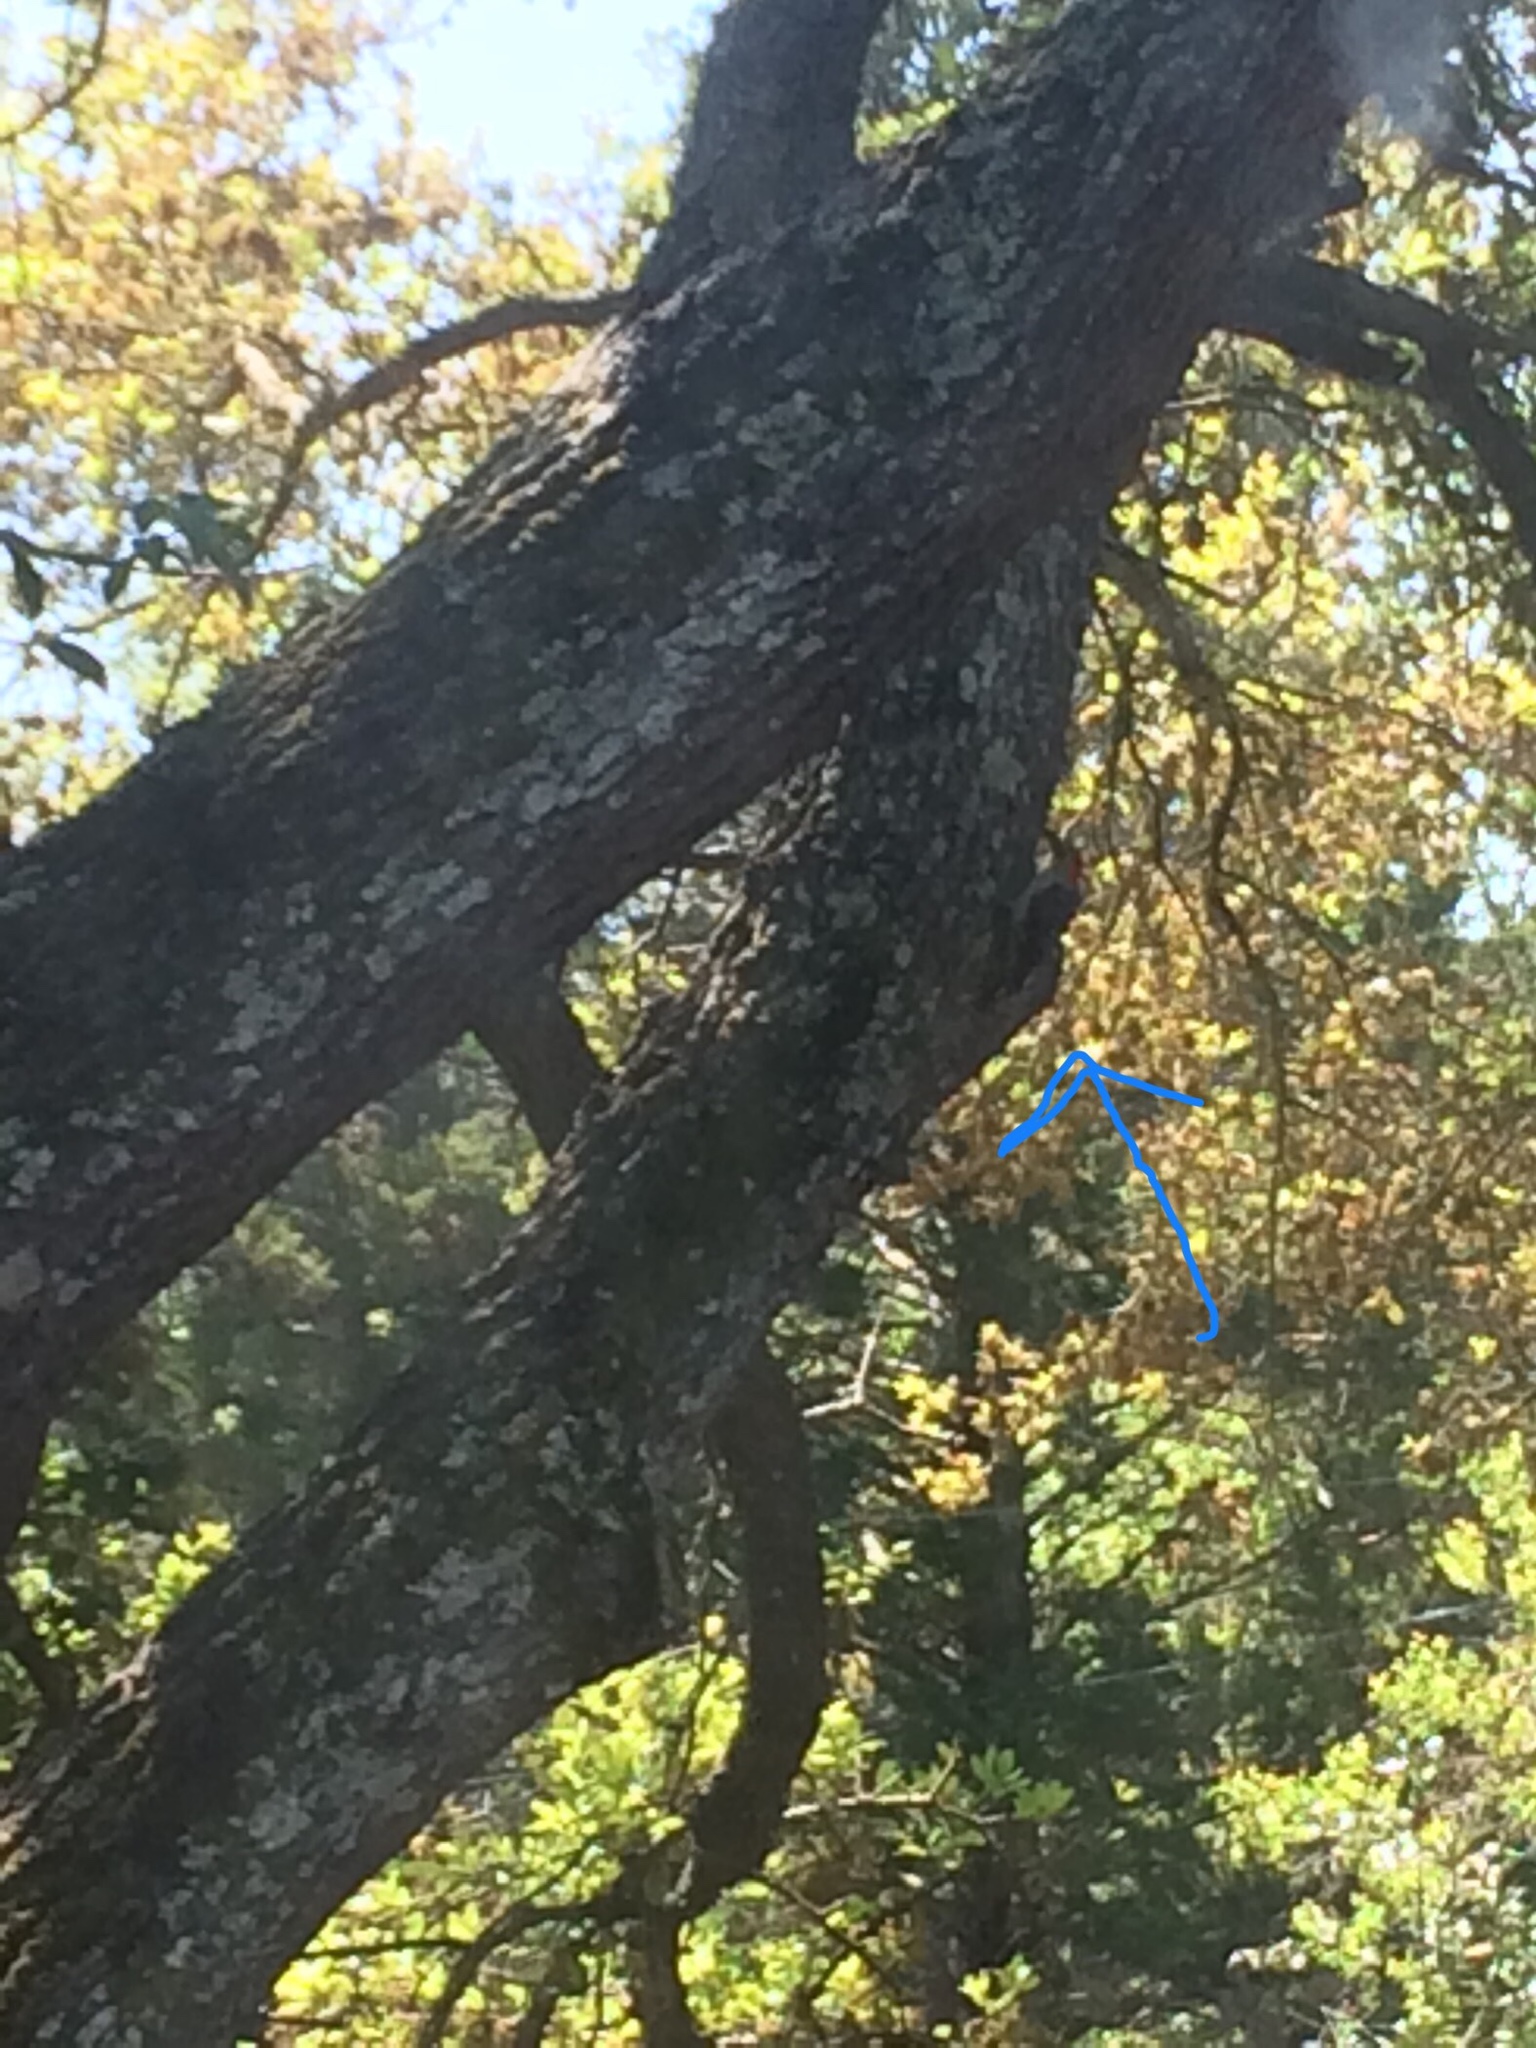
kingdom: Animalia
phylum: Chordata
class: Aves
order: Piciformes
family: Picidae
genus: Melanerpes
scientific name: Melanerpes carolinus
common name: Red-bellied woodpecker
